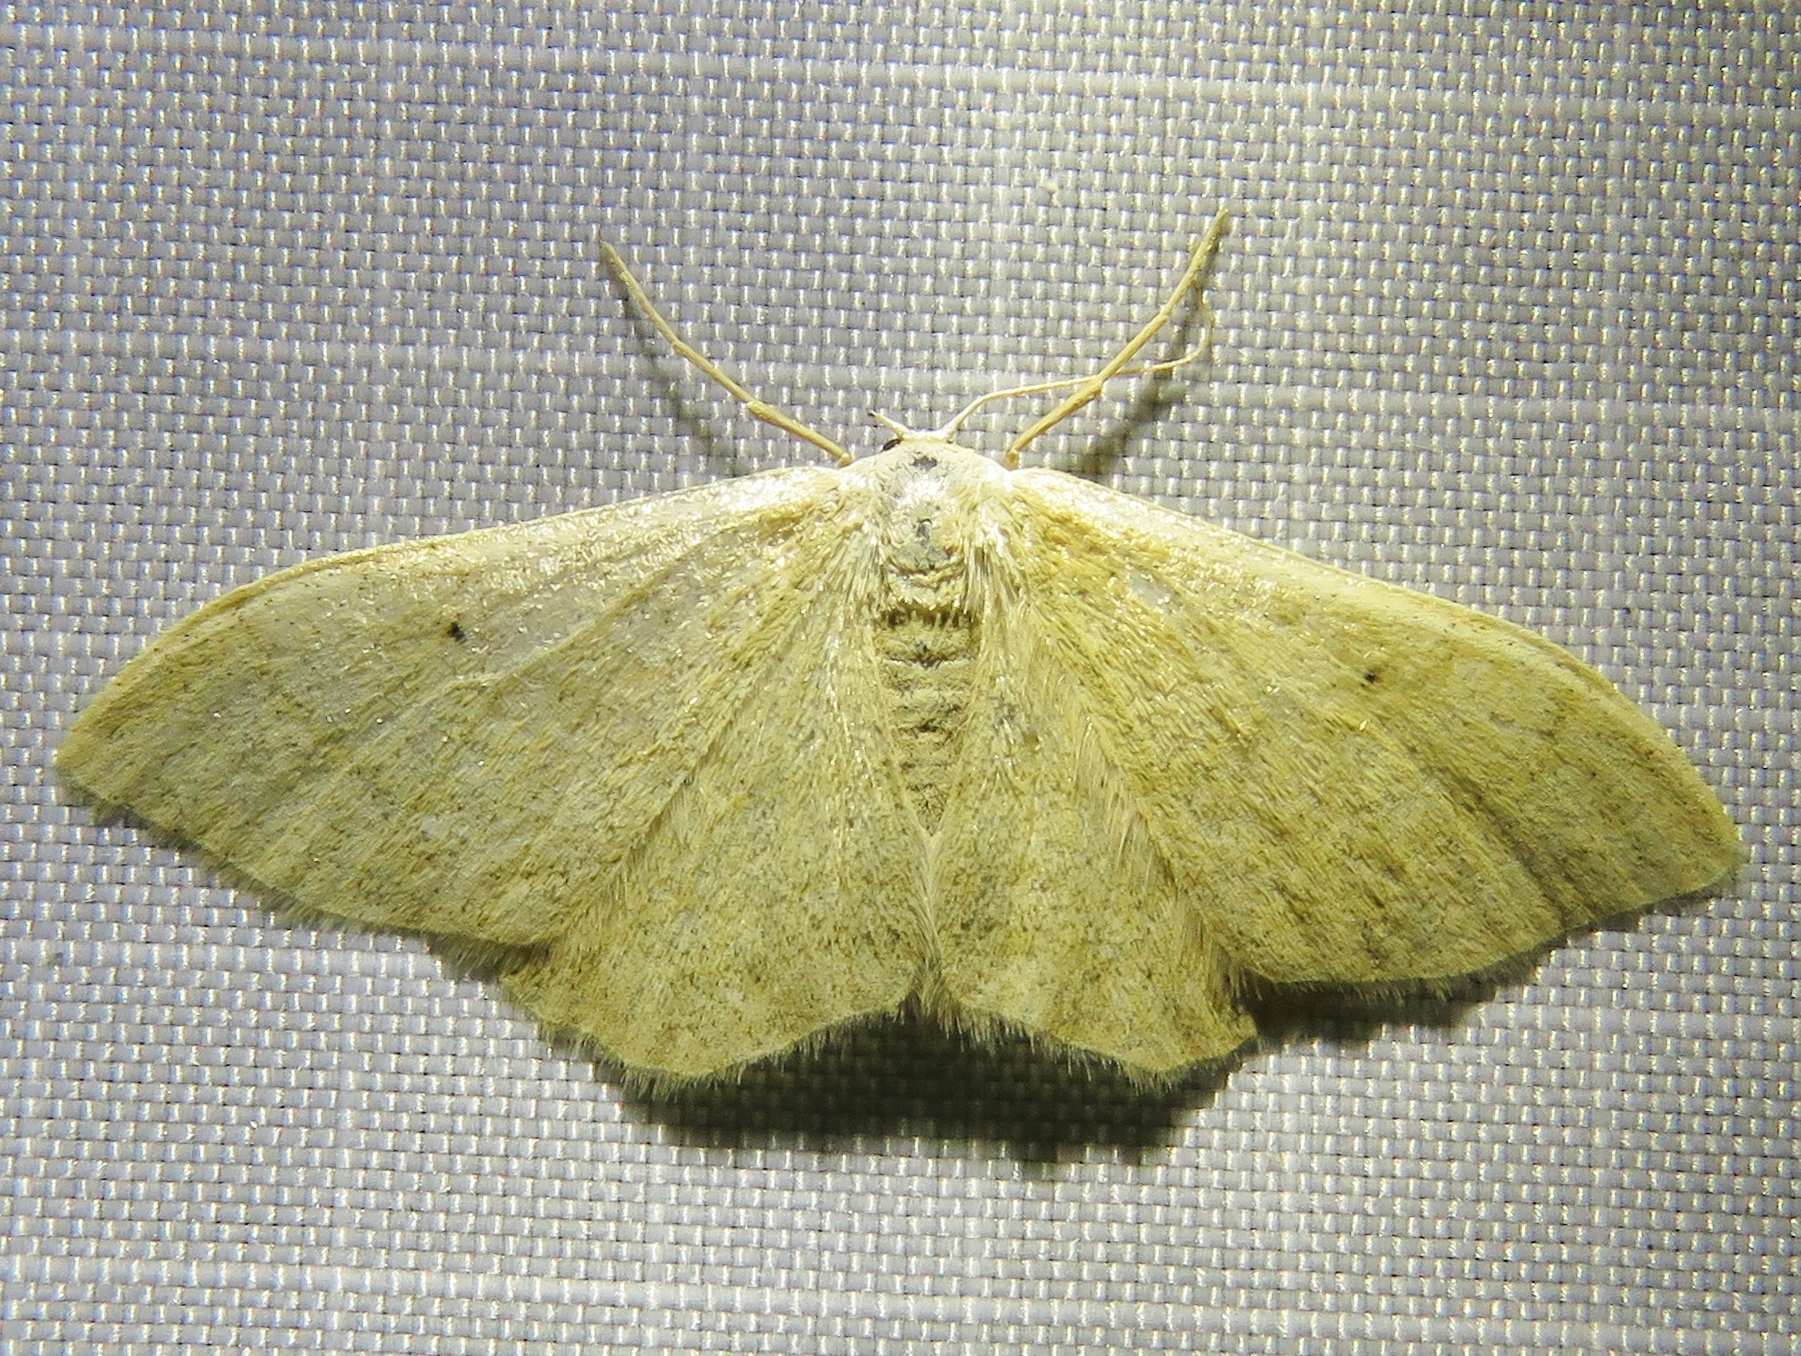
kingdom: Animalia
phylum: Arthropoda
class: Insecta
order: Lepidoptera
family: Geometridae
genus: Idaea
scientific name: Idaea straminata
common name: Plain wave
